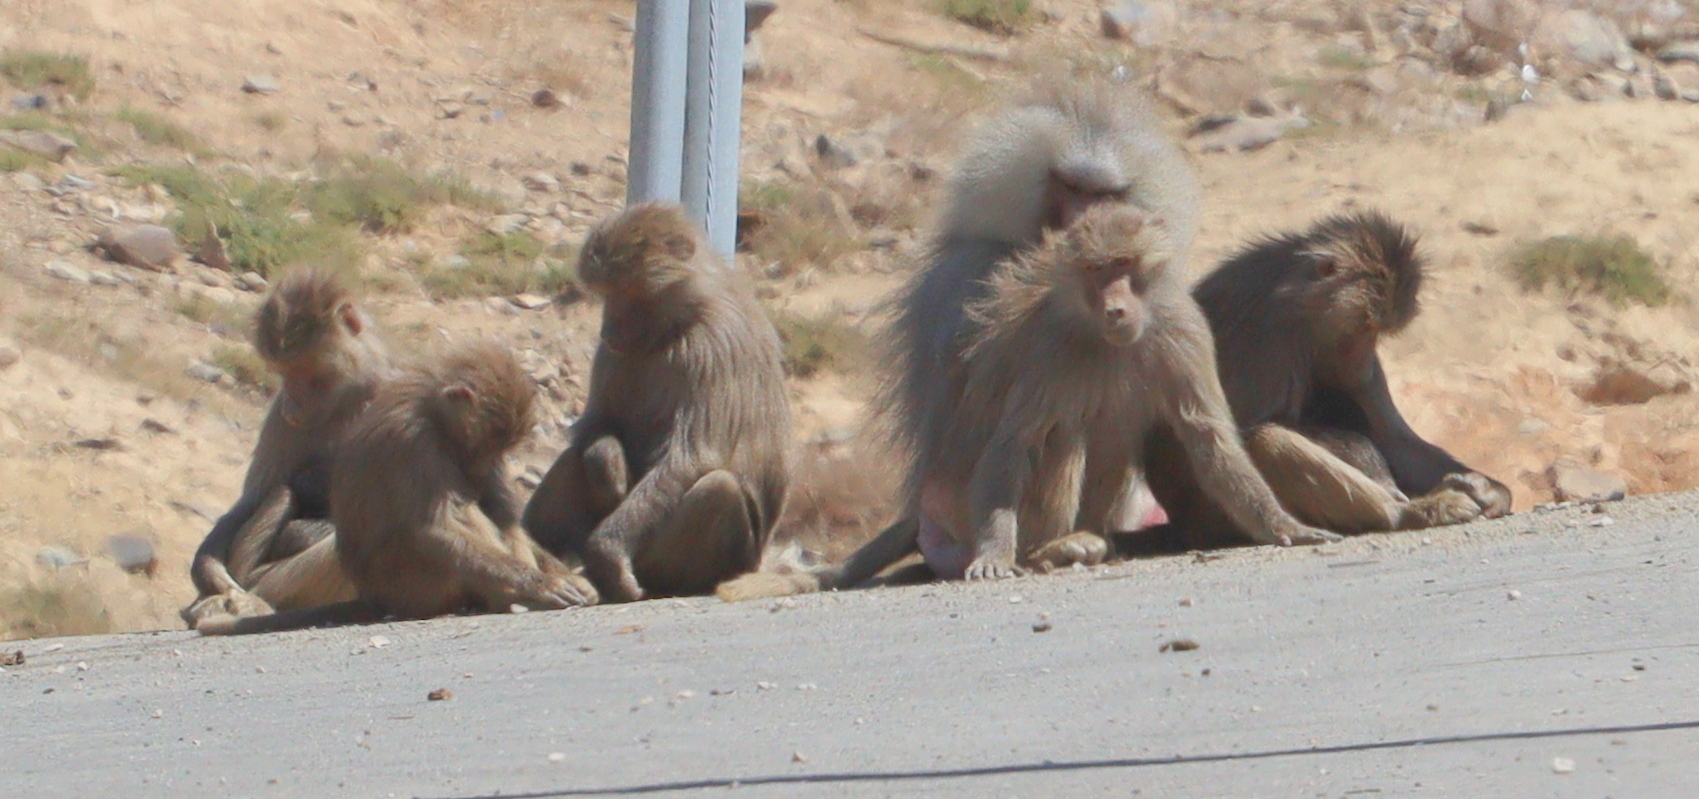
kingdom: Animalia
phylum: Chordata
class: Mammalia
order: Primates
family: Cercopithecidae
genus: Papio
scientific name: Papio hamadryas
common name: Hamadryas baboon
